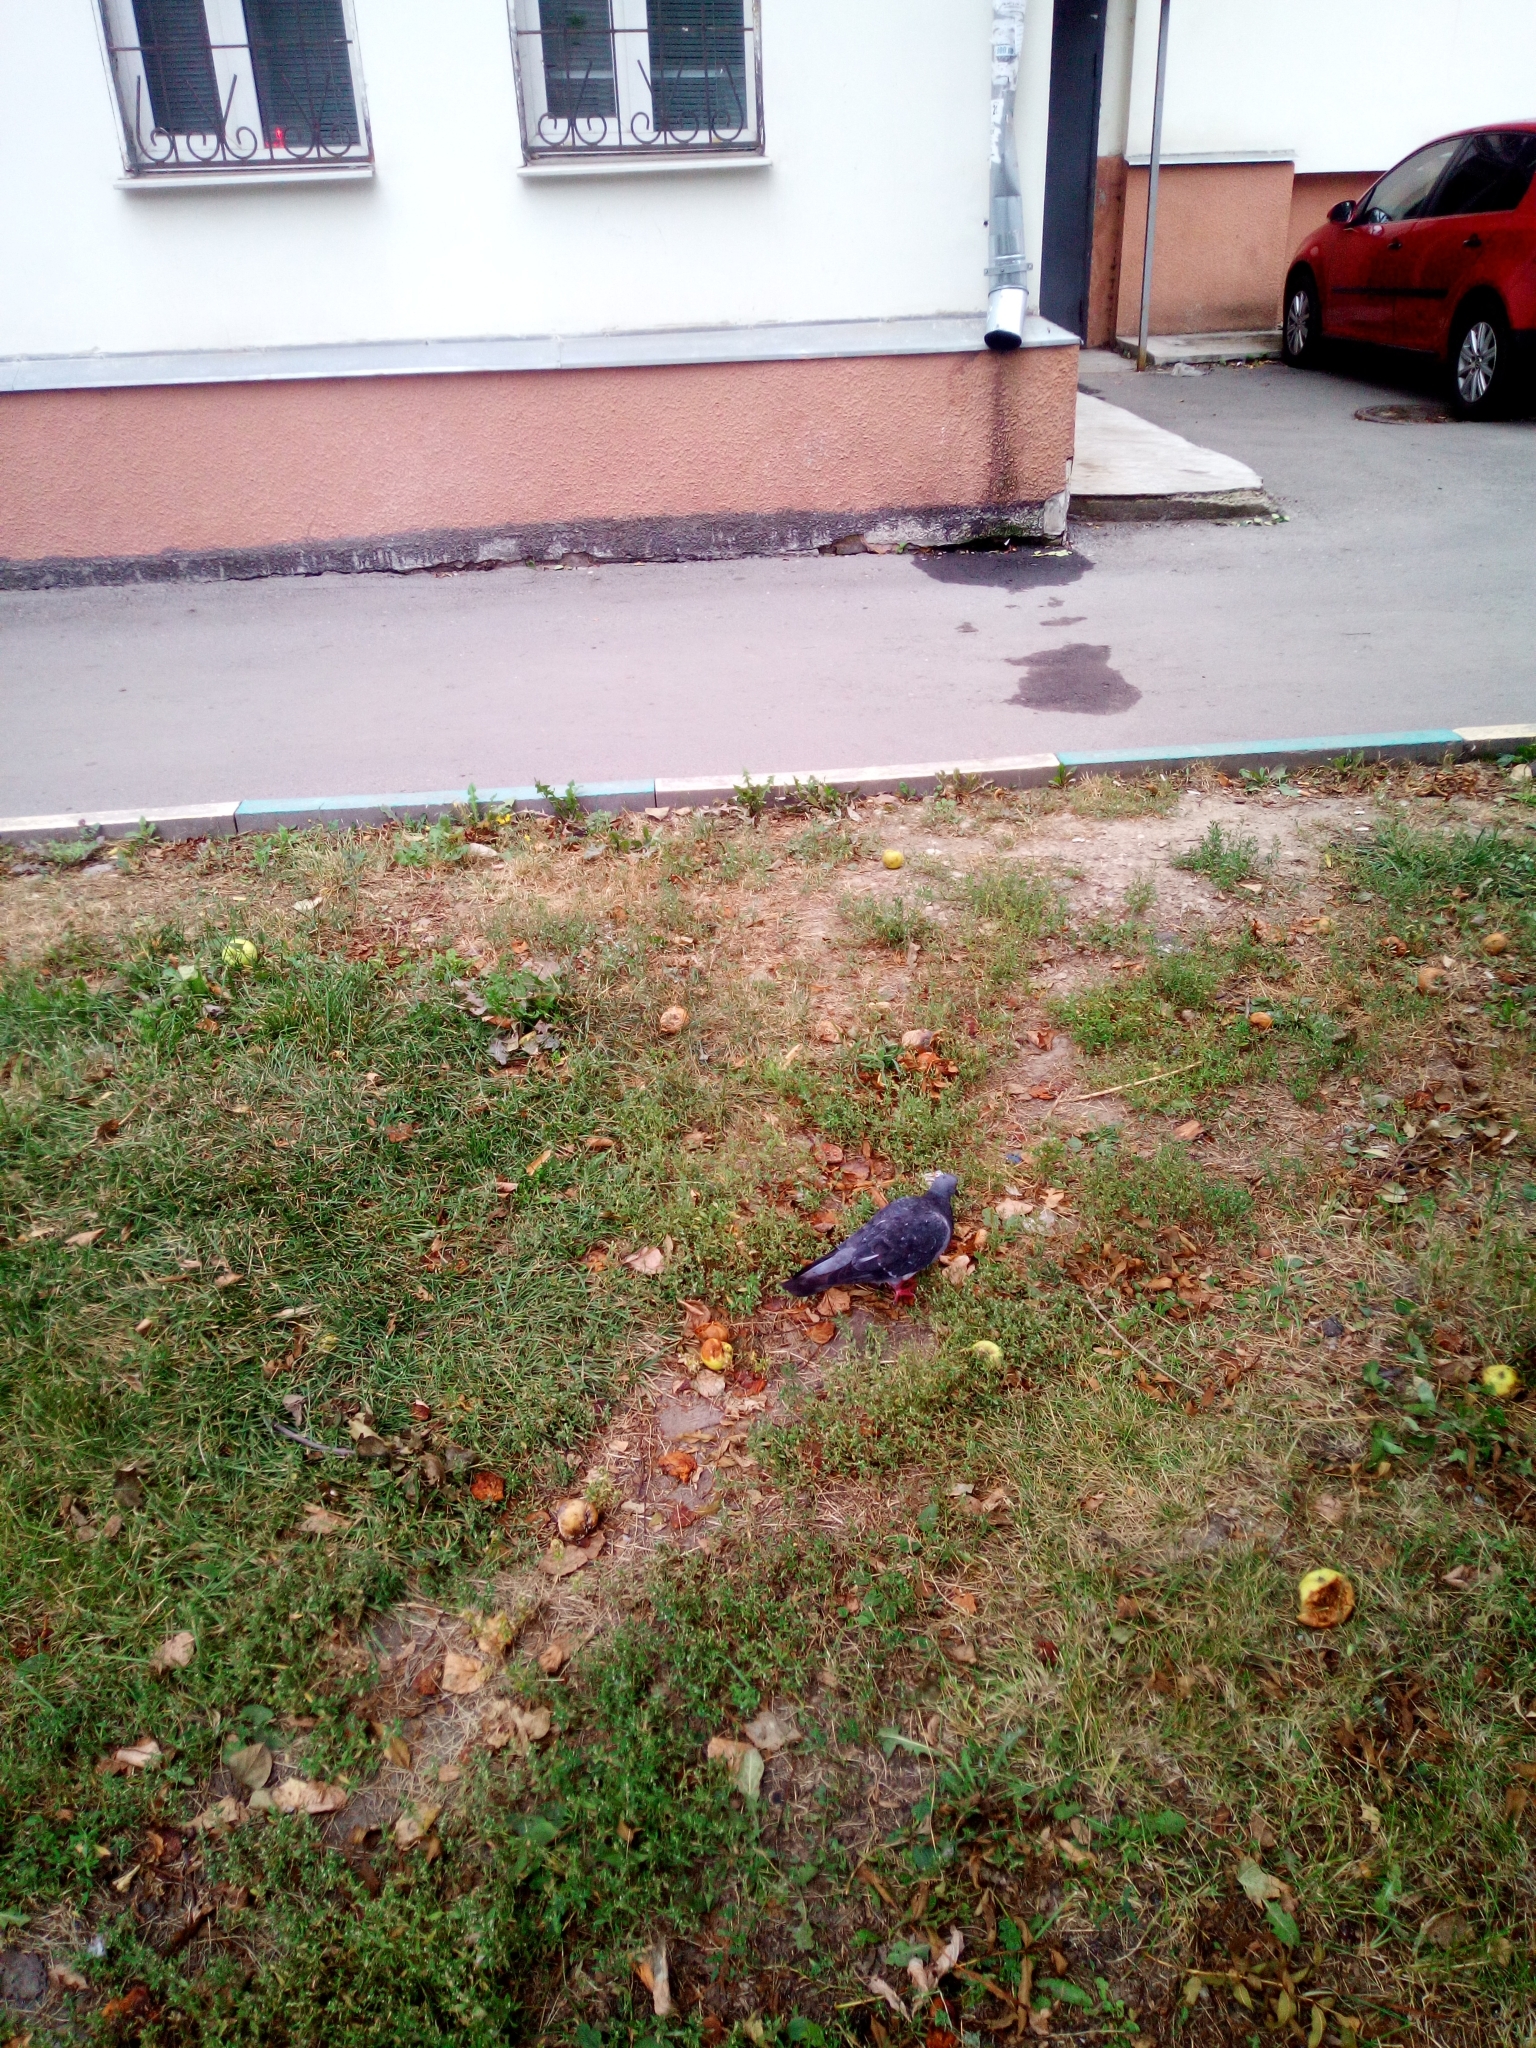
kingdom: Animalia
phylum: Chordata
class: Aves
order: Columbiformes
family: Columbidae
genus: Columba
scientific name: Columba livia
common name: Rock pigeon
